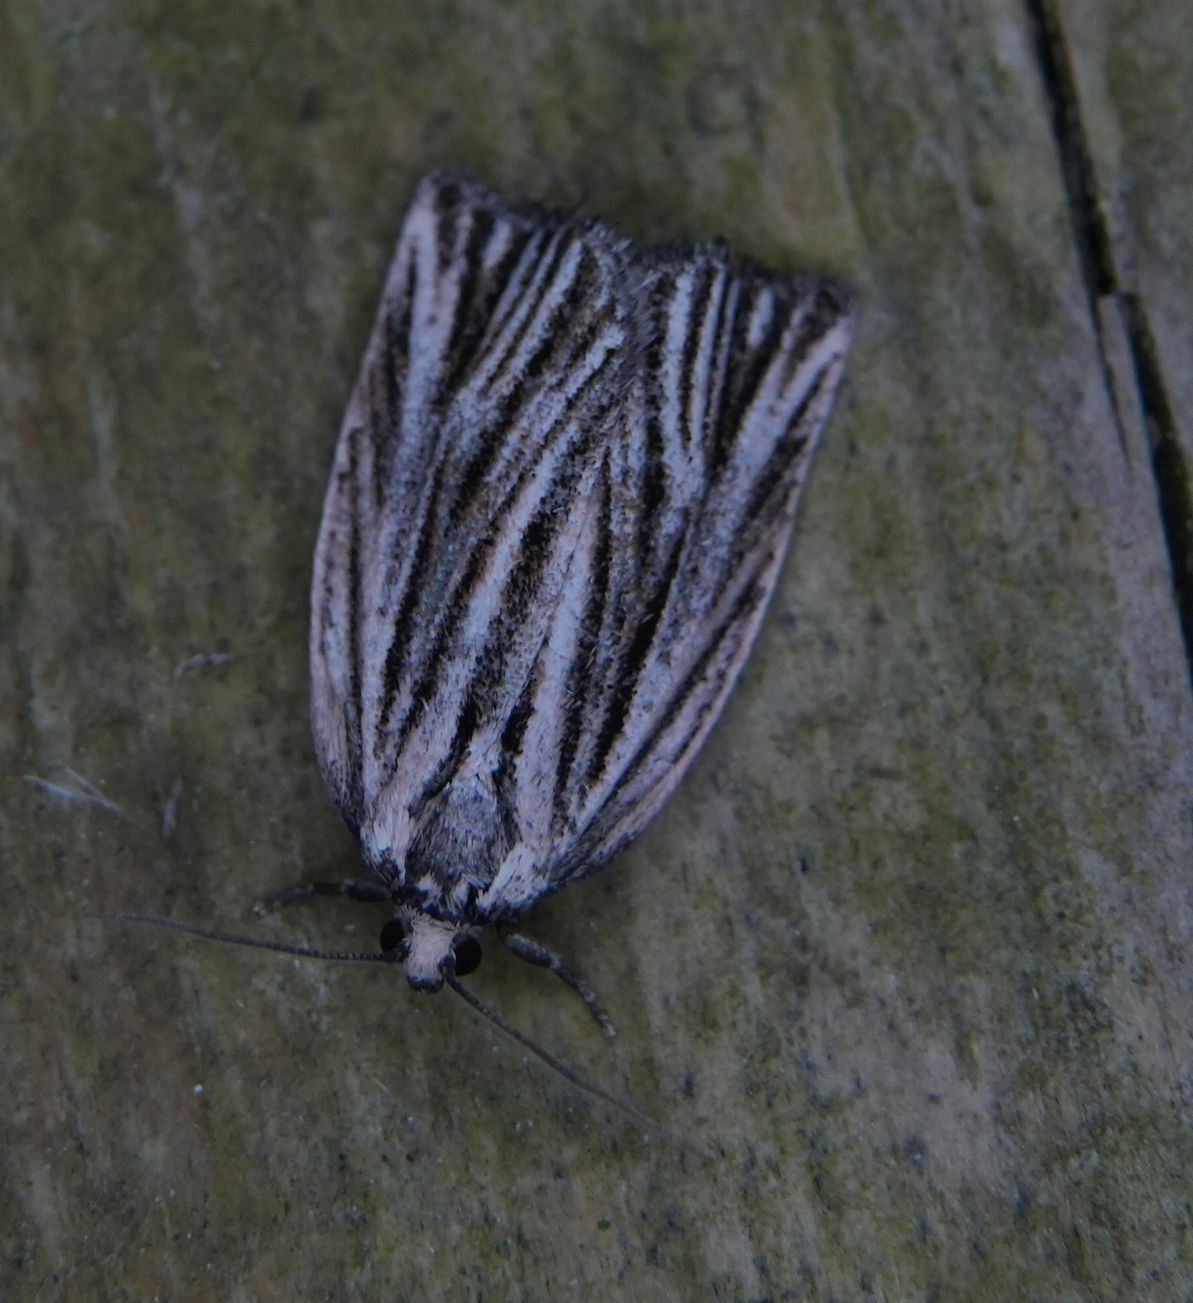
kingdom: Animalia
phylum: Arthropoda
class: Insecta
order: Lepidoptera
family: Tortricidae
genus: Archips
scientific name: Archips strianus
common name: Striated tortrix moth
